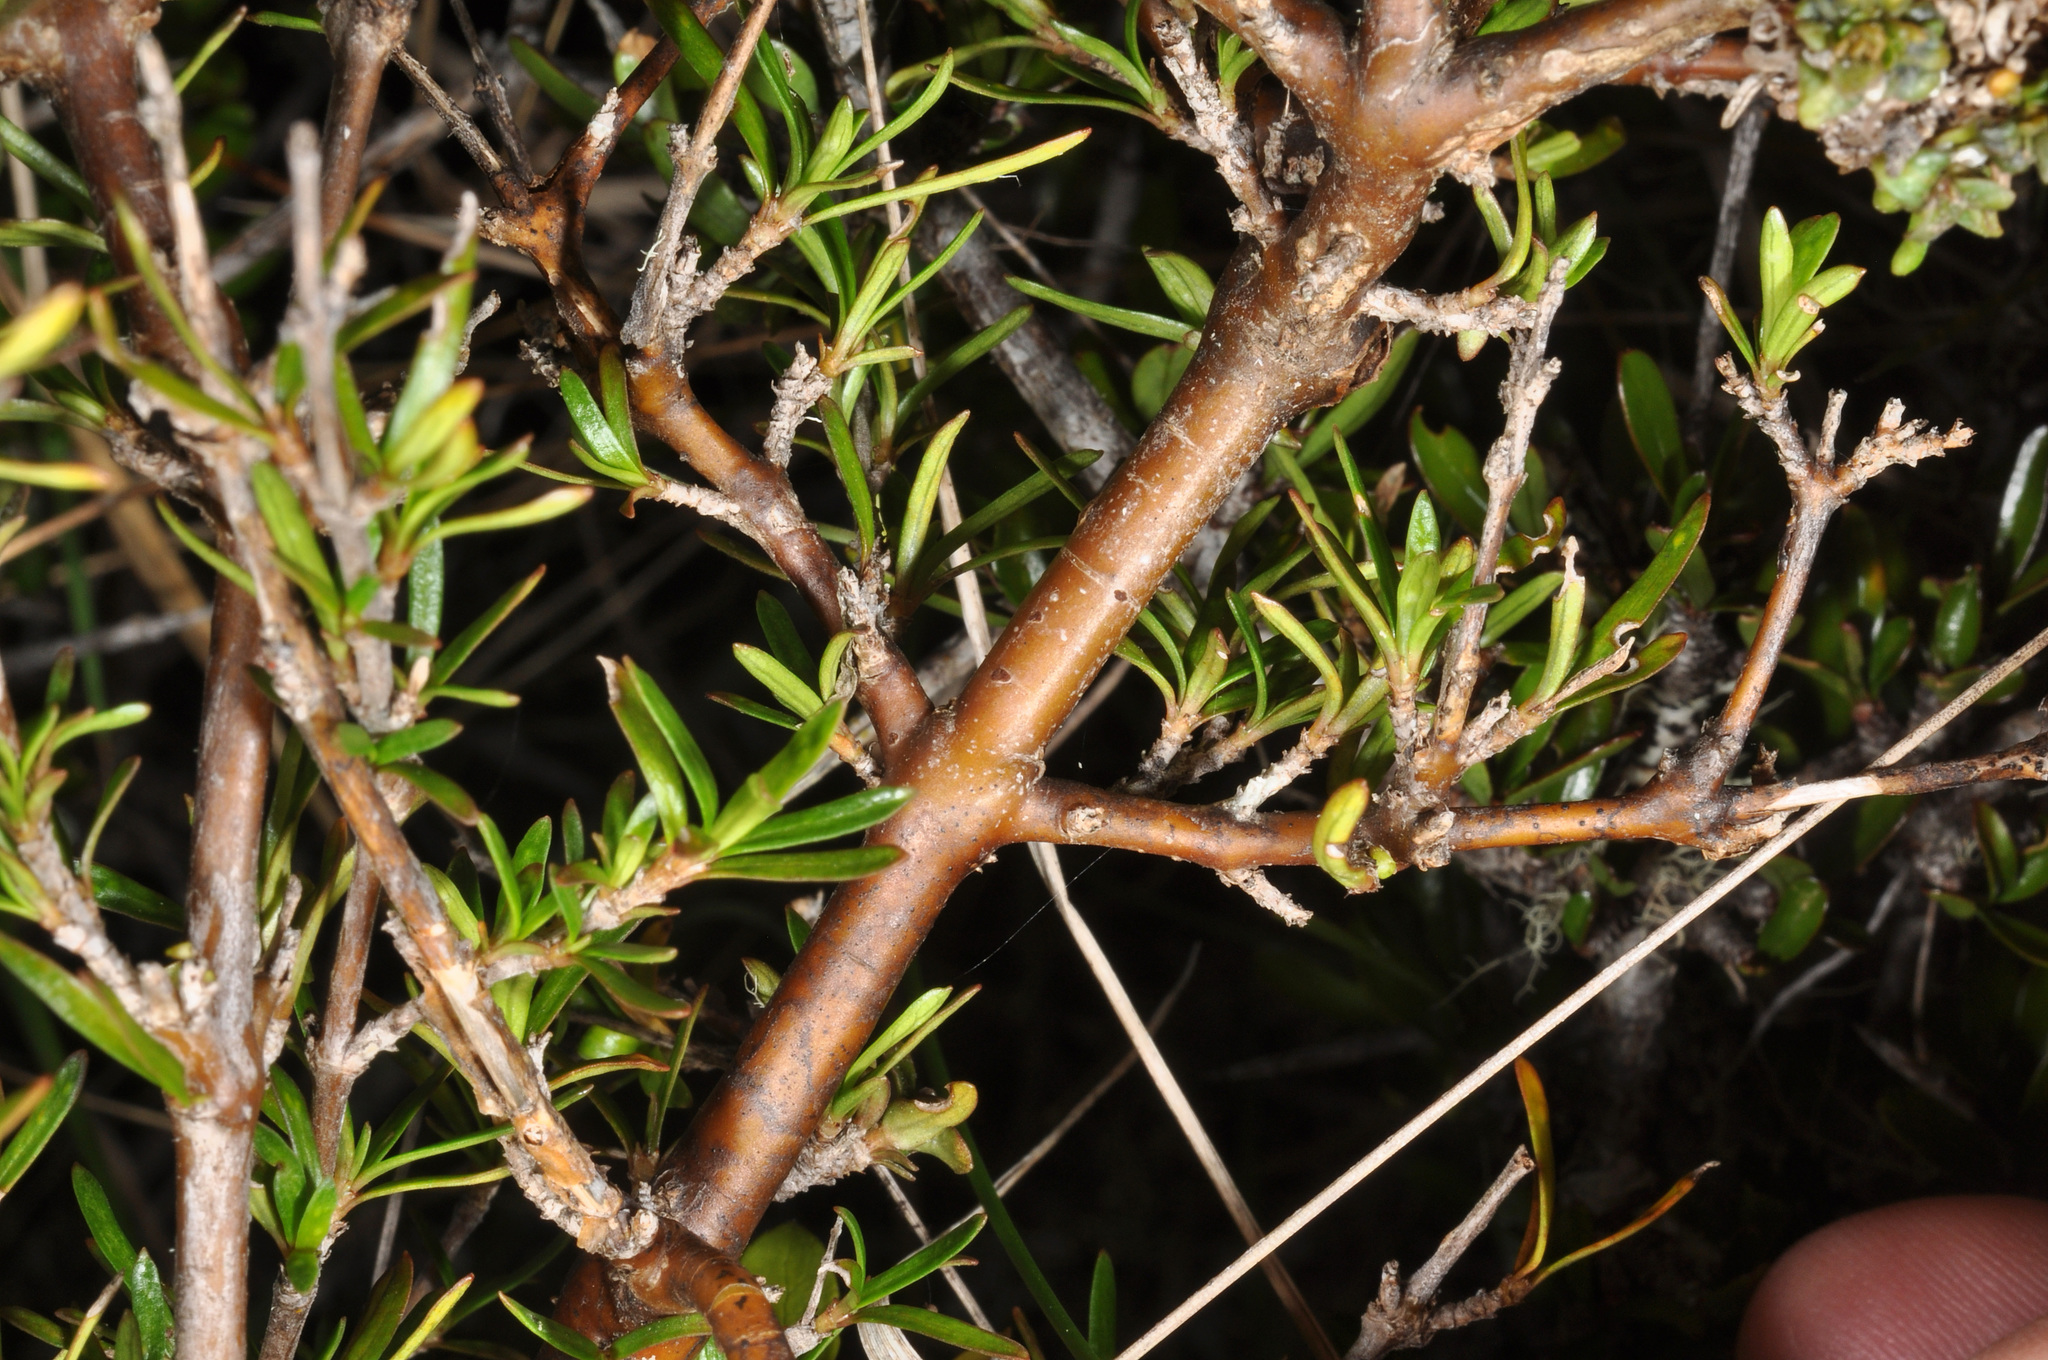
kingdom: Plantae
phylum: Tracheophyta
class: Magnoliopsida
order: Gentianales
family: Rubiaceae
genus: Coprosma
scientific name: Coprosma rugosa
